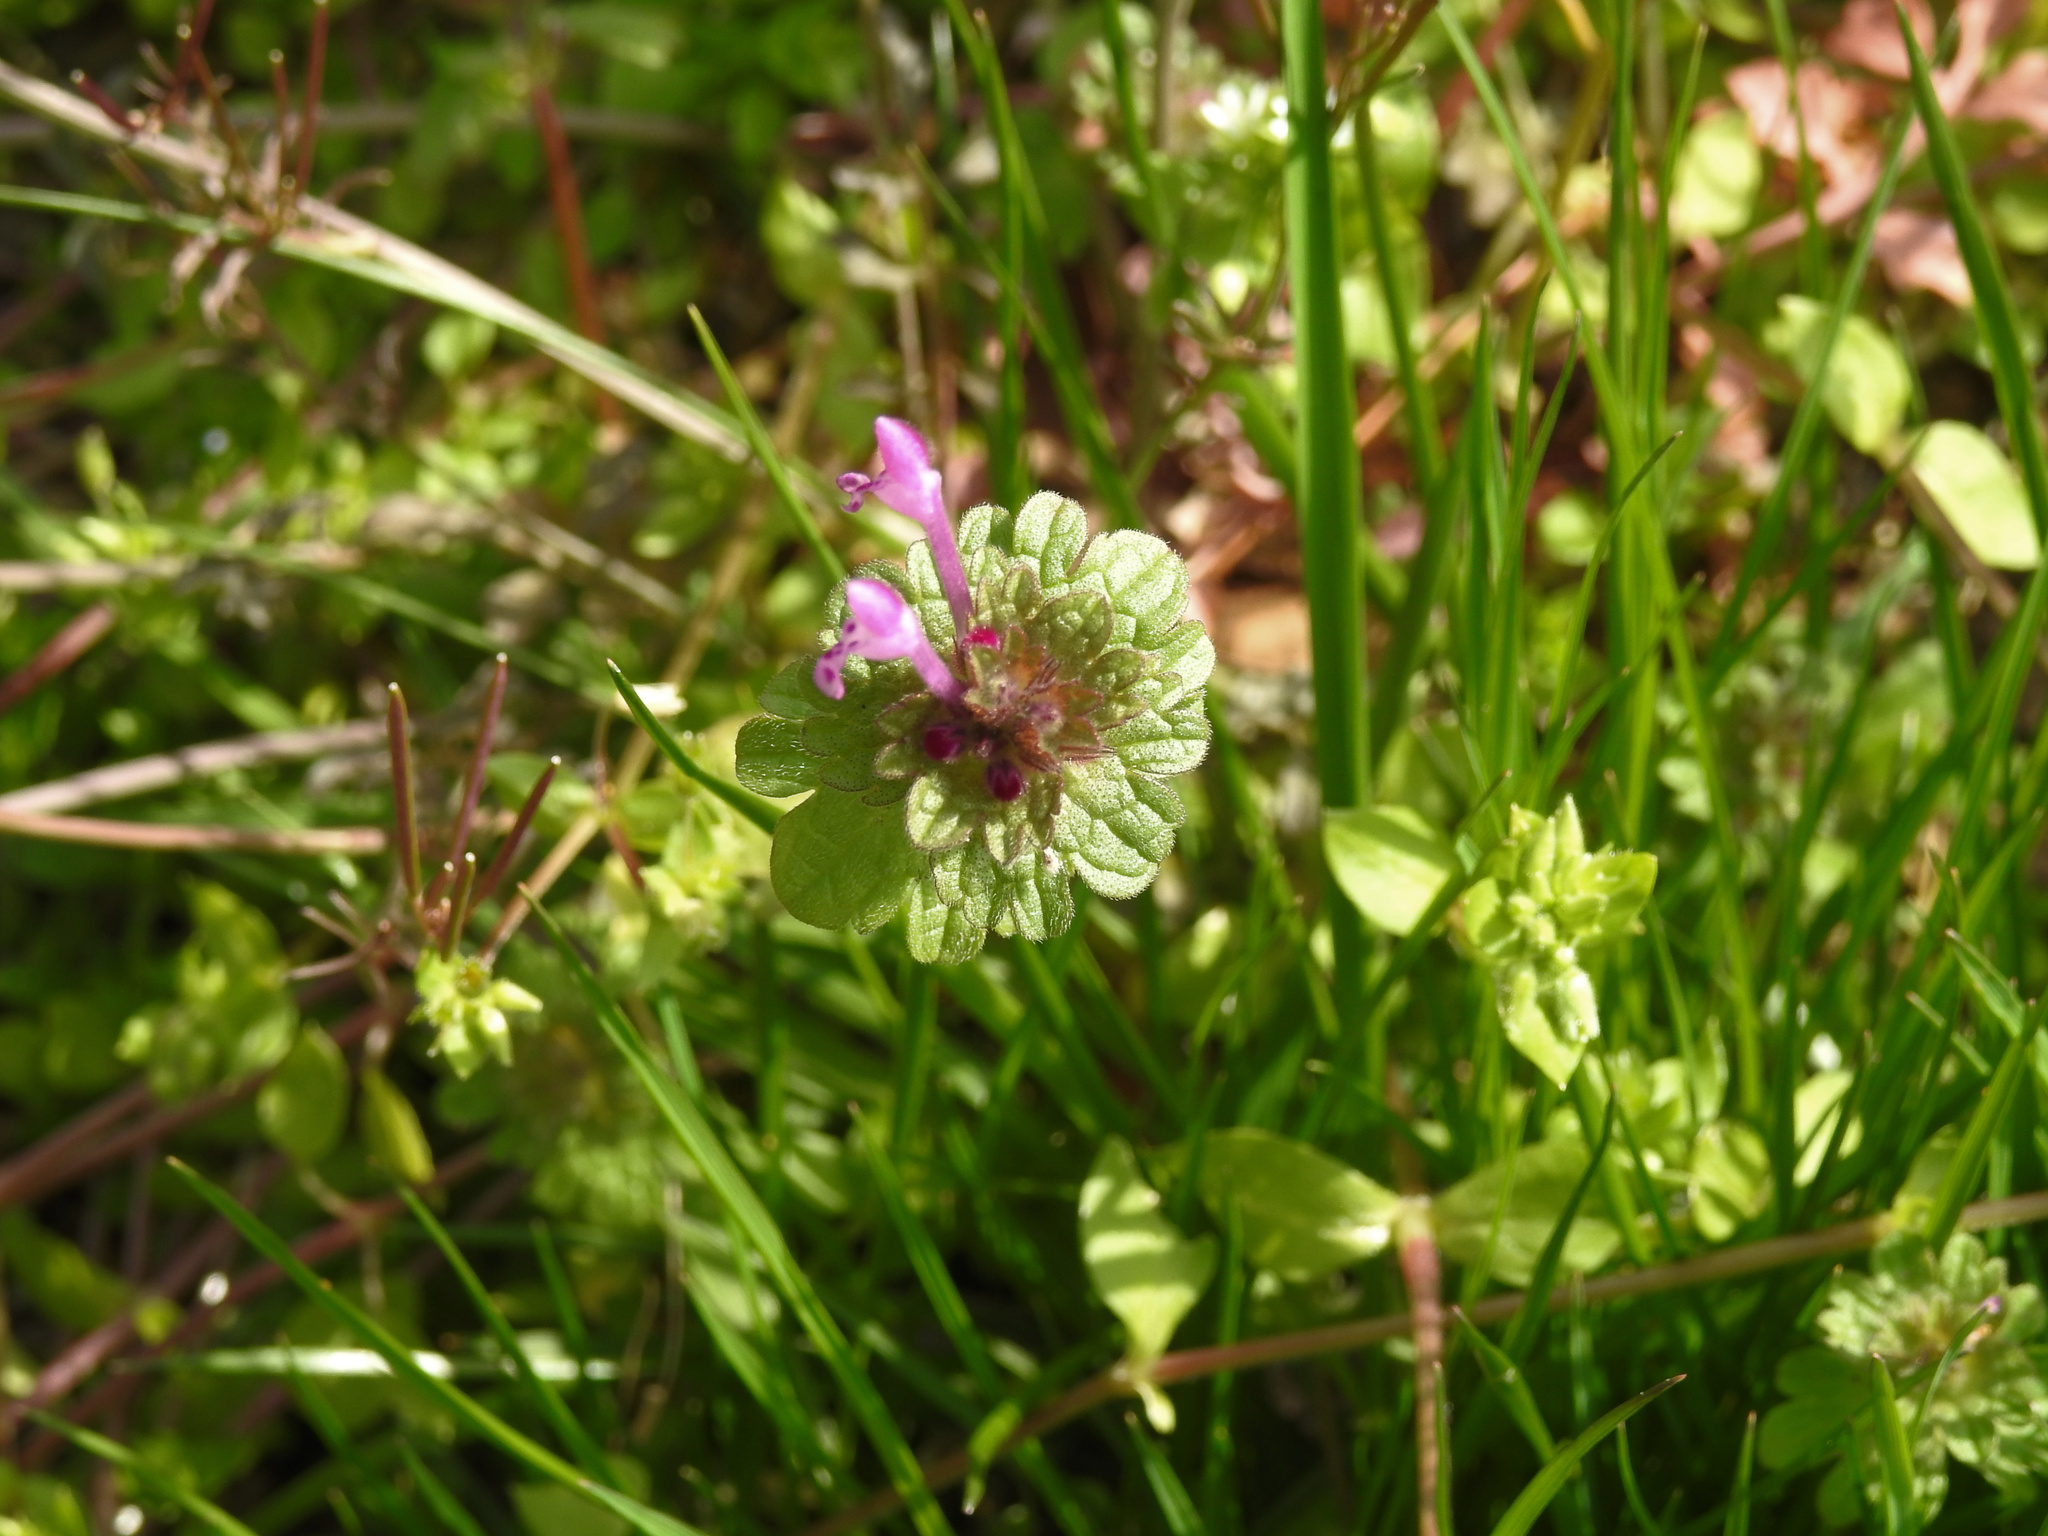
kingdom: Plantae
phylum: Tracheophyta
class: Magnoliopsida
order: Lamiales
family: Lamiaceae
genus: Lamium
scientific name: Lamium amplexicaule
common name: Henbit dead-nettle
